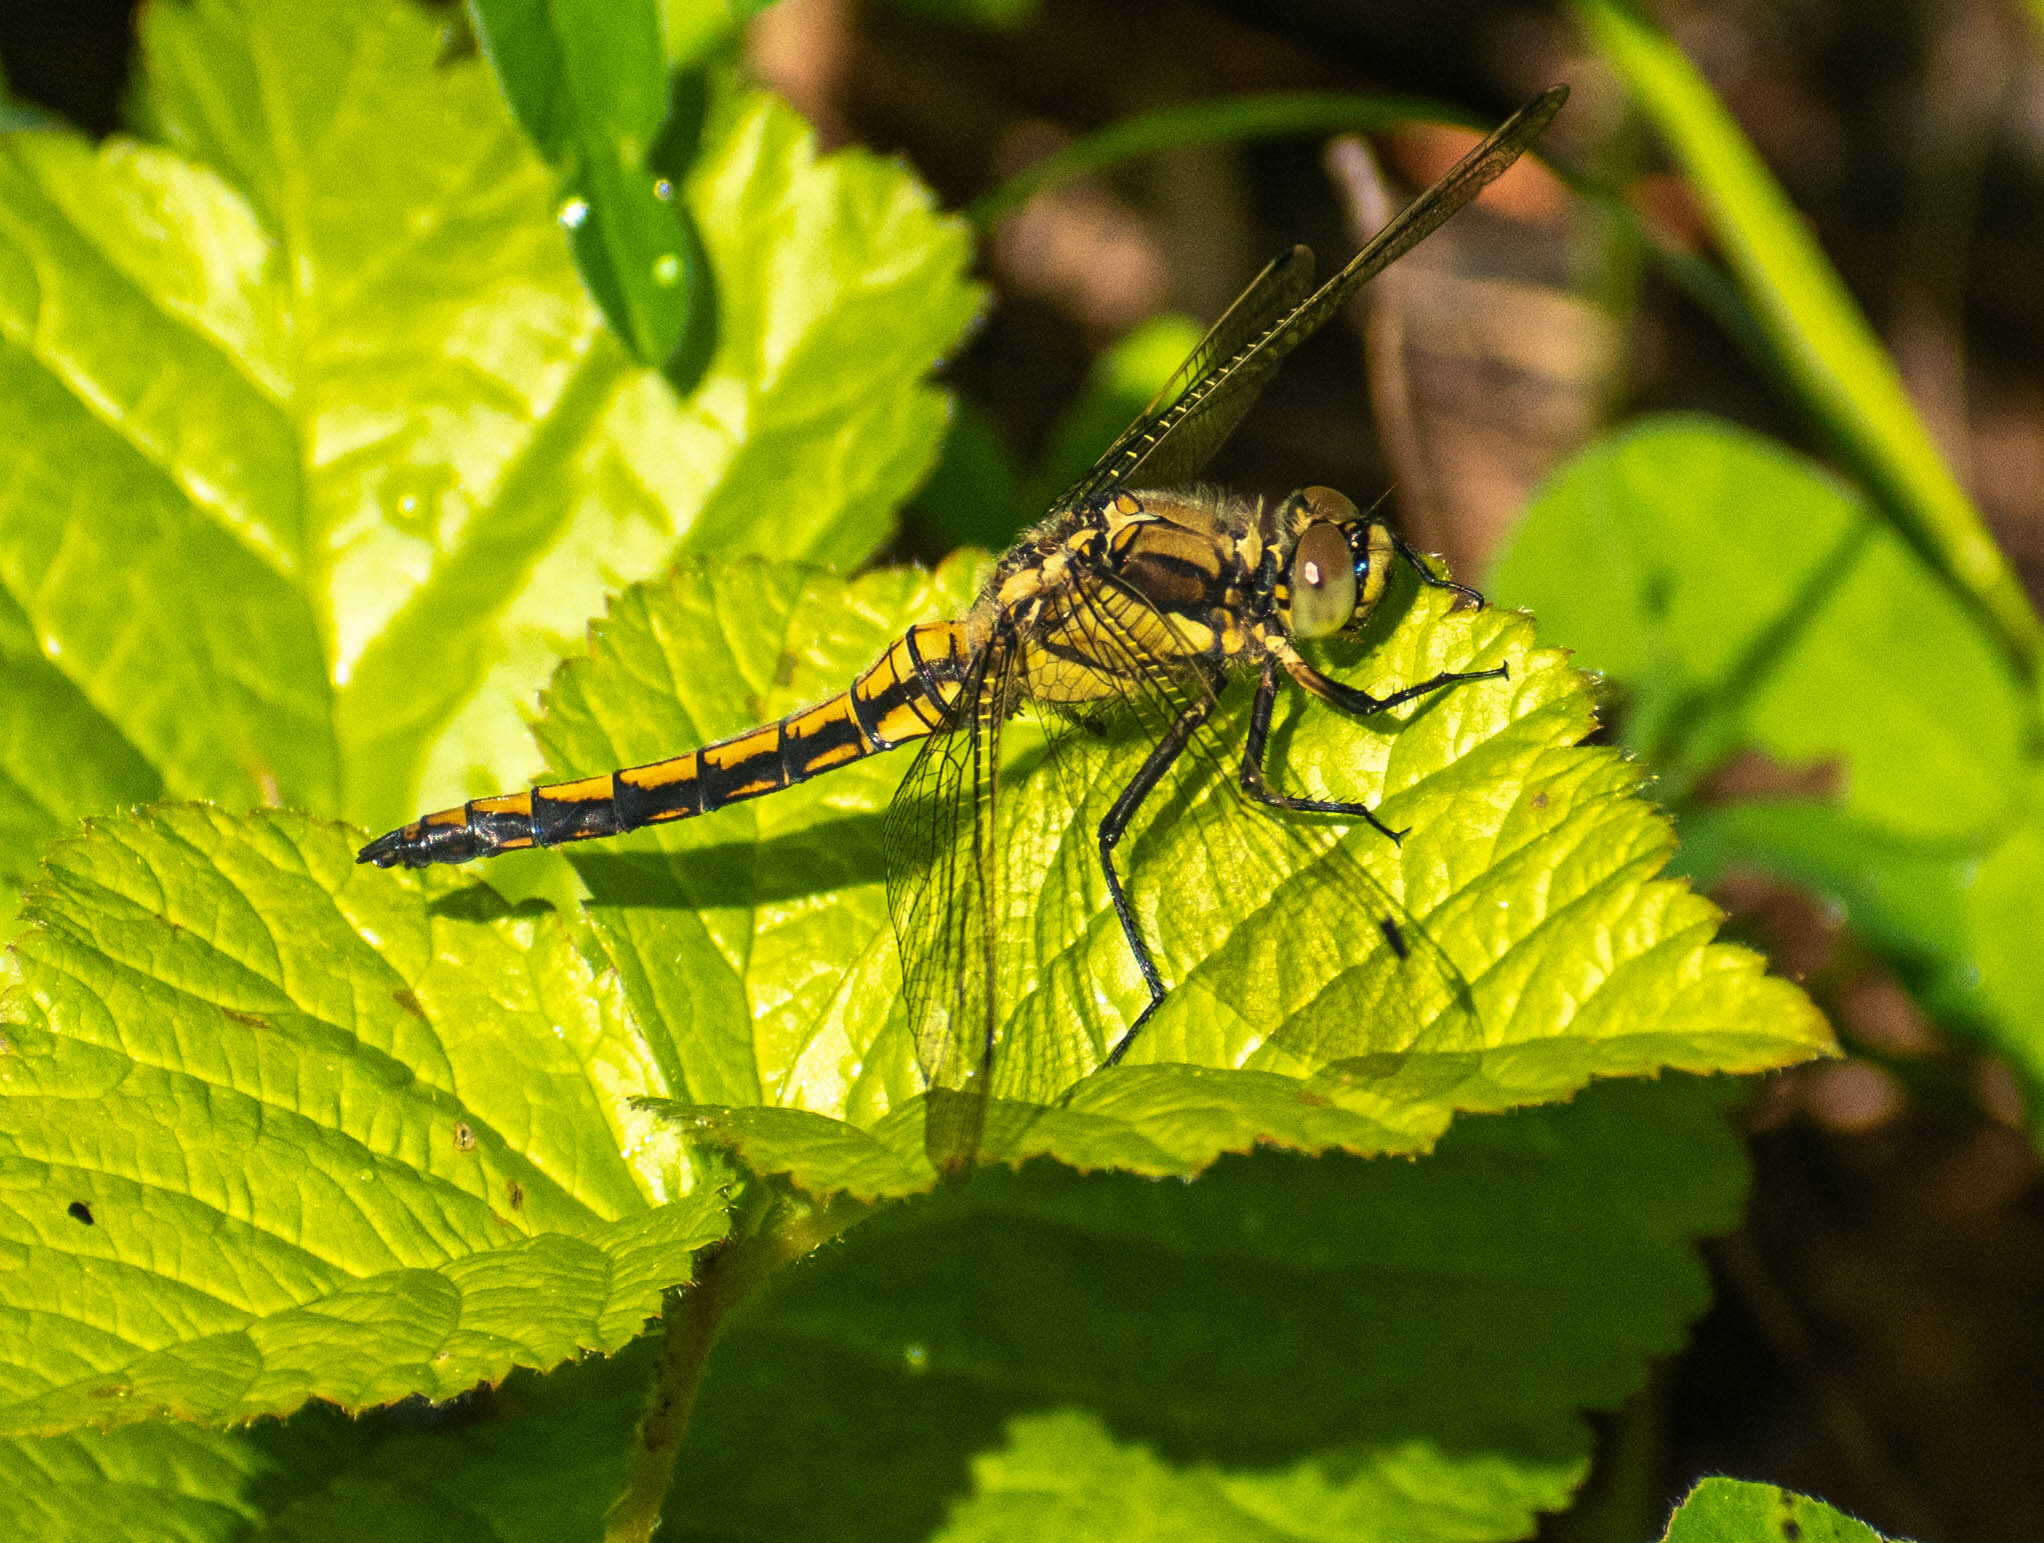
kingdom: Animalia
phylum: Arthropoda
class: Insecta
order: Odonata
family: Libellulidae
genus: Orthetrum
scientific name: Orthetrum cancellatum
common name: Black-tailed skimmer
